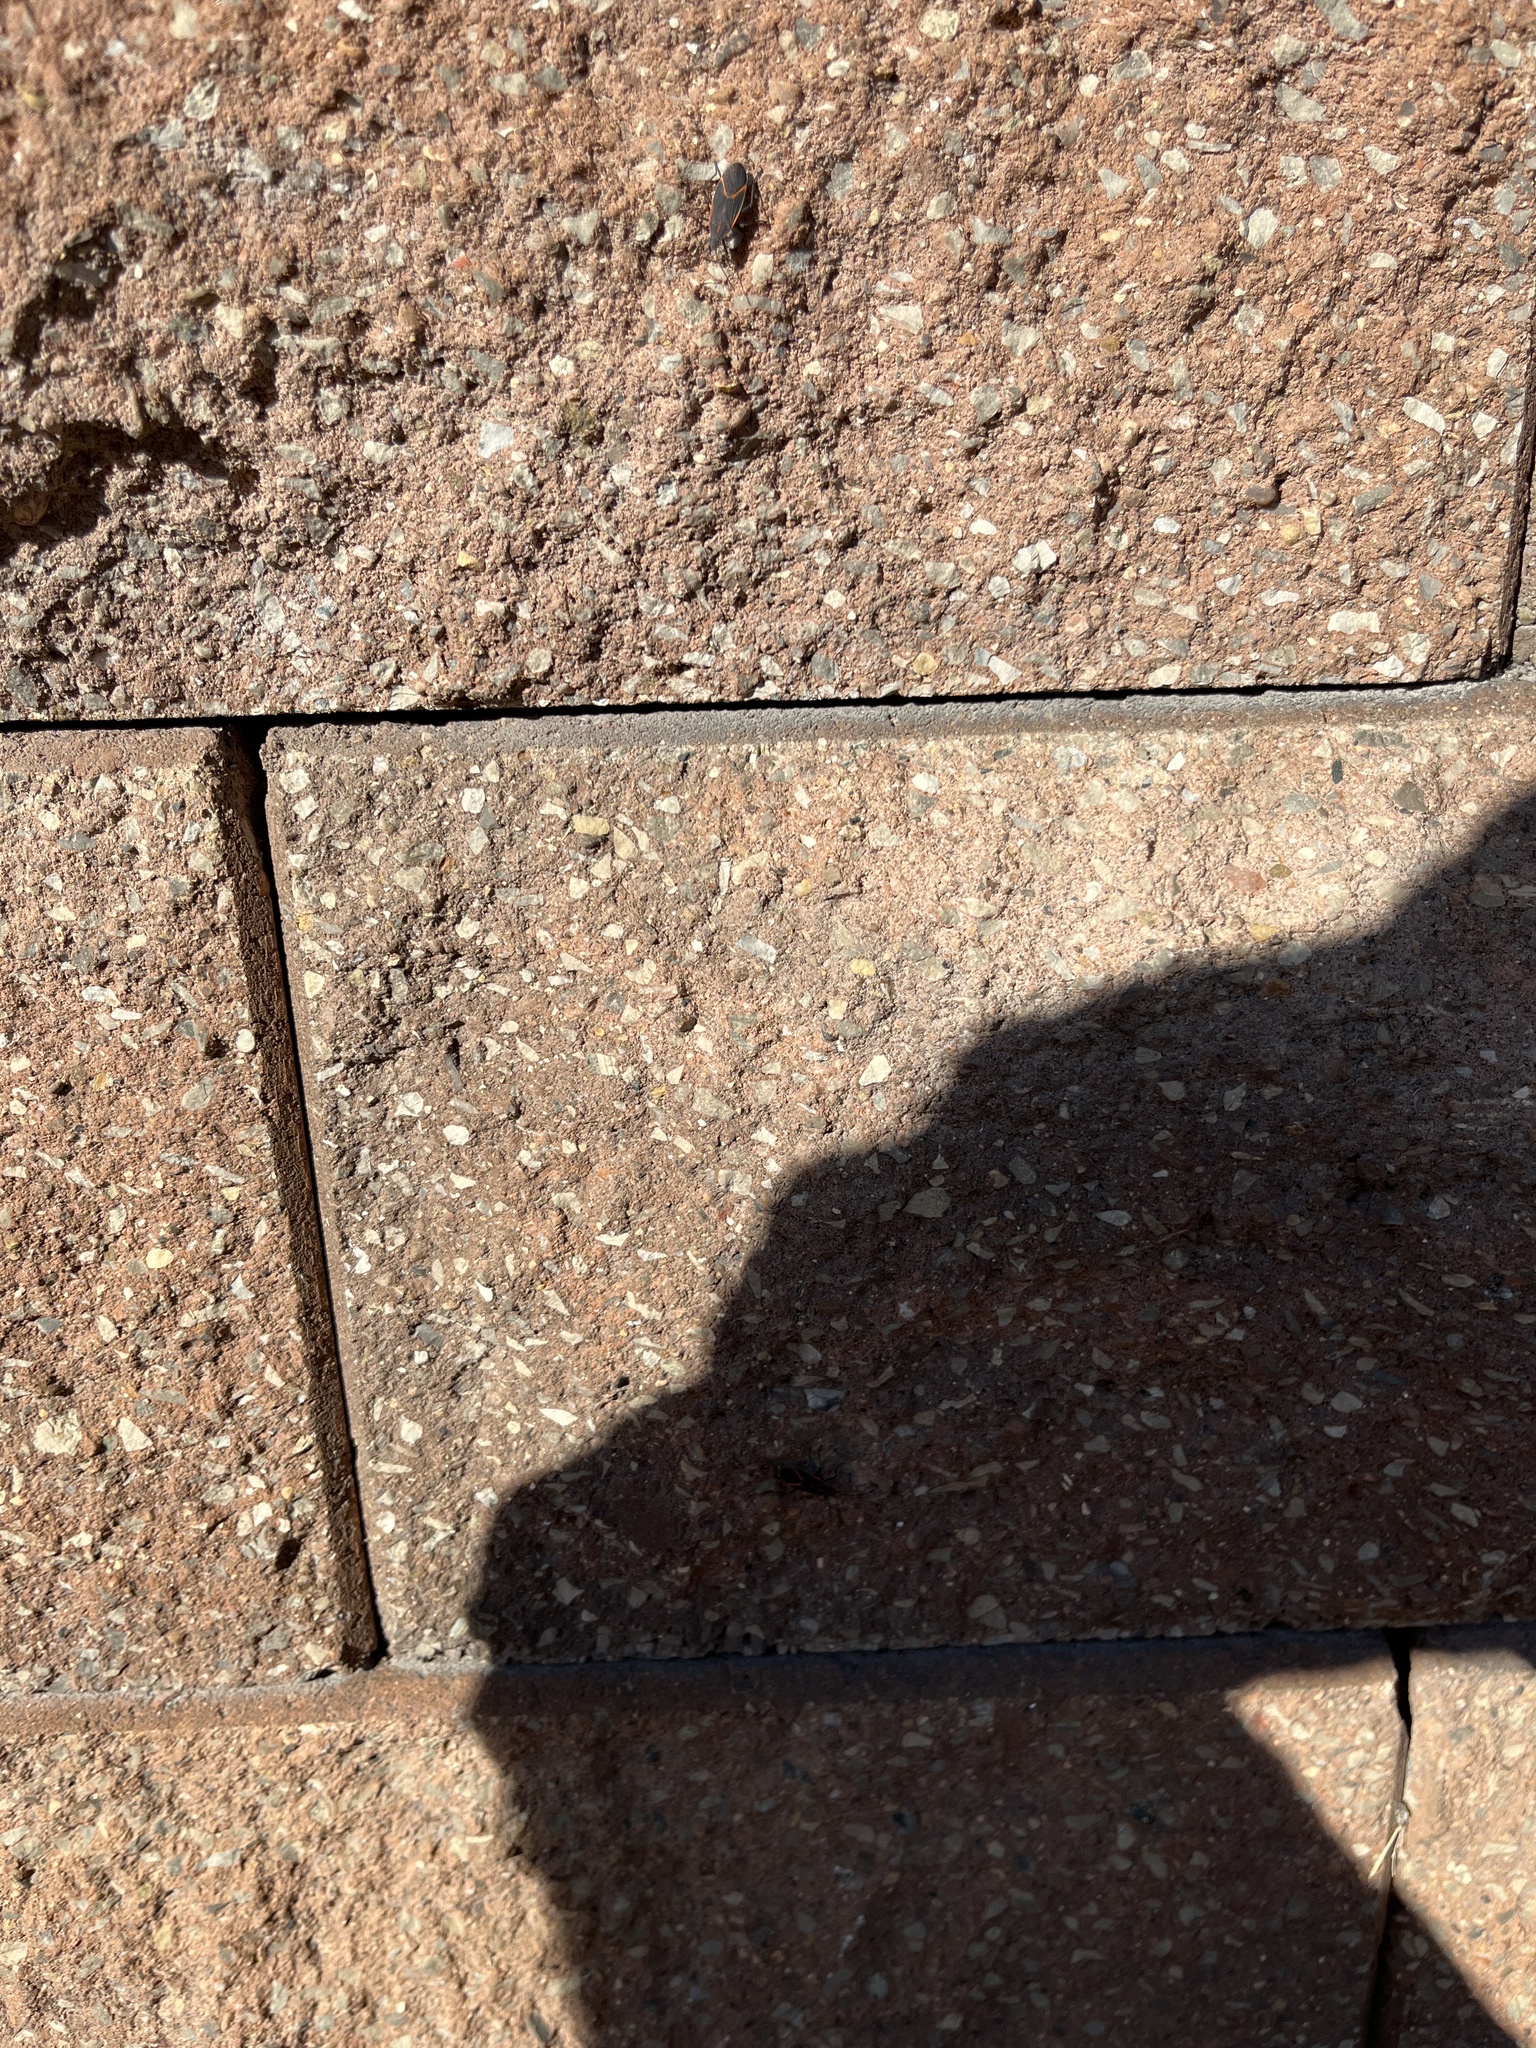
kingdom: Animalia
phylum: Arthropoda
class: Insecta
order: Hemiptera
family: Rhopalidae
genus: Boisea
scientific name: Boisea trivittata
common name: Boxelder bug
